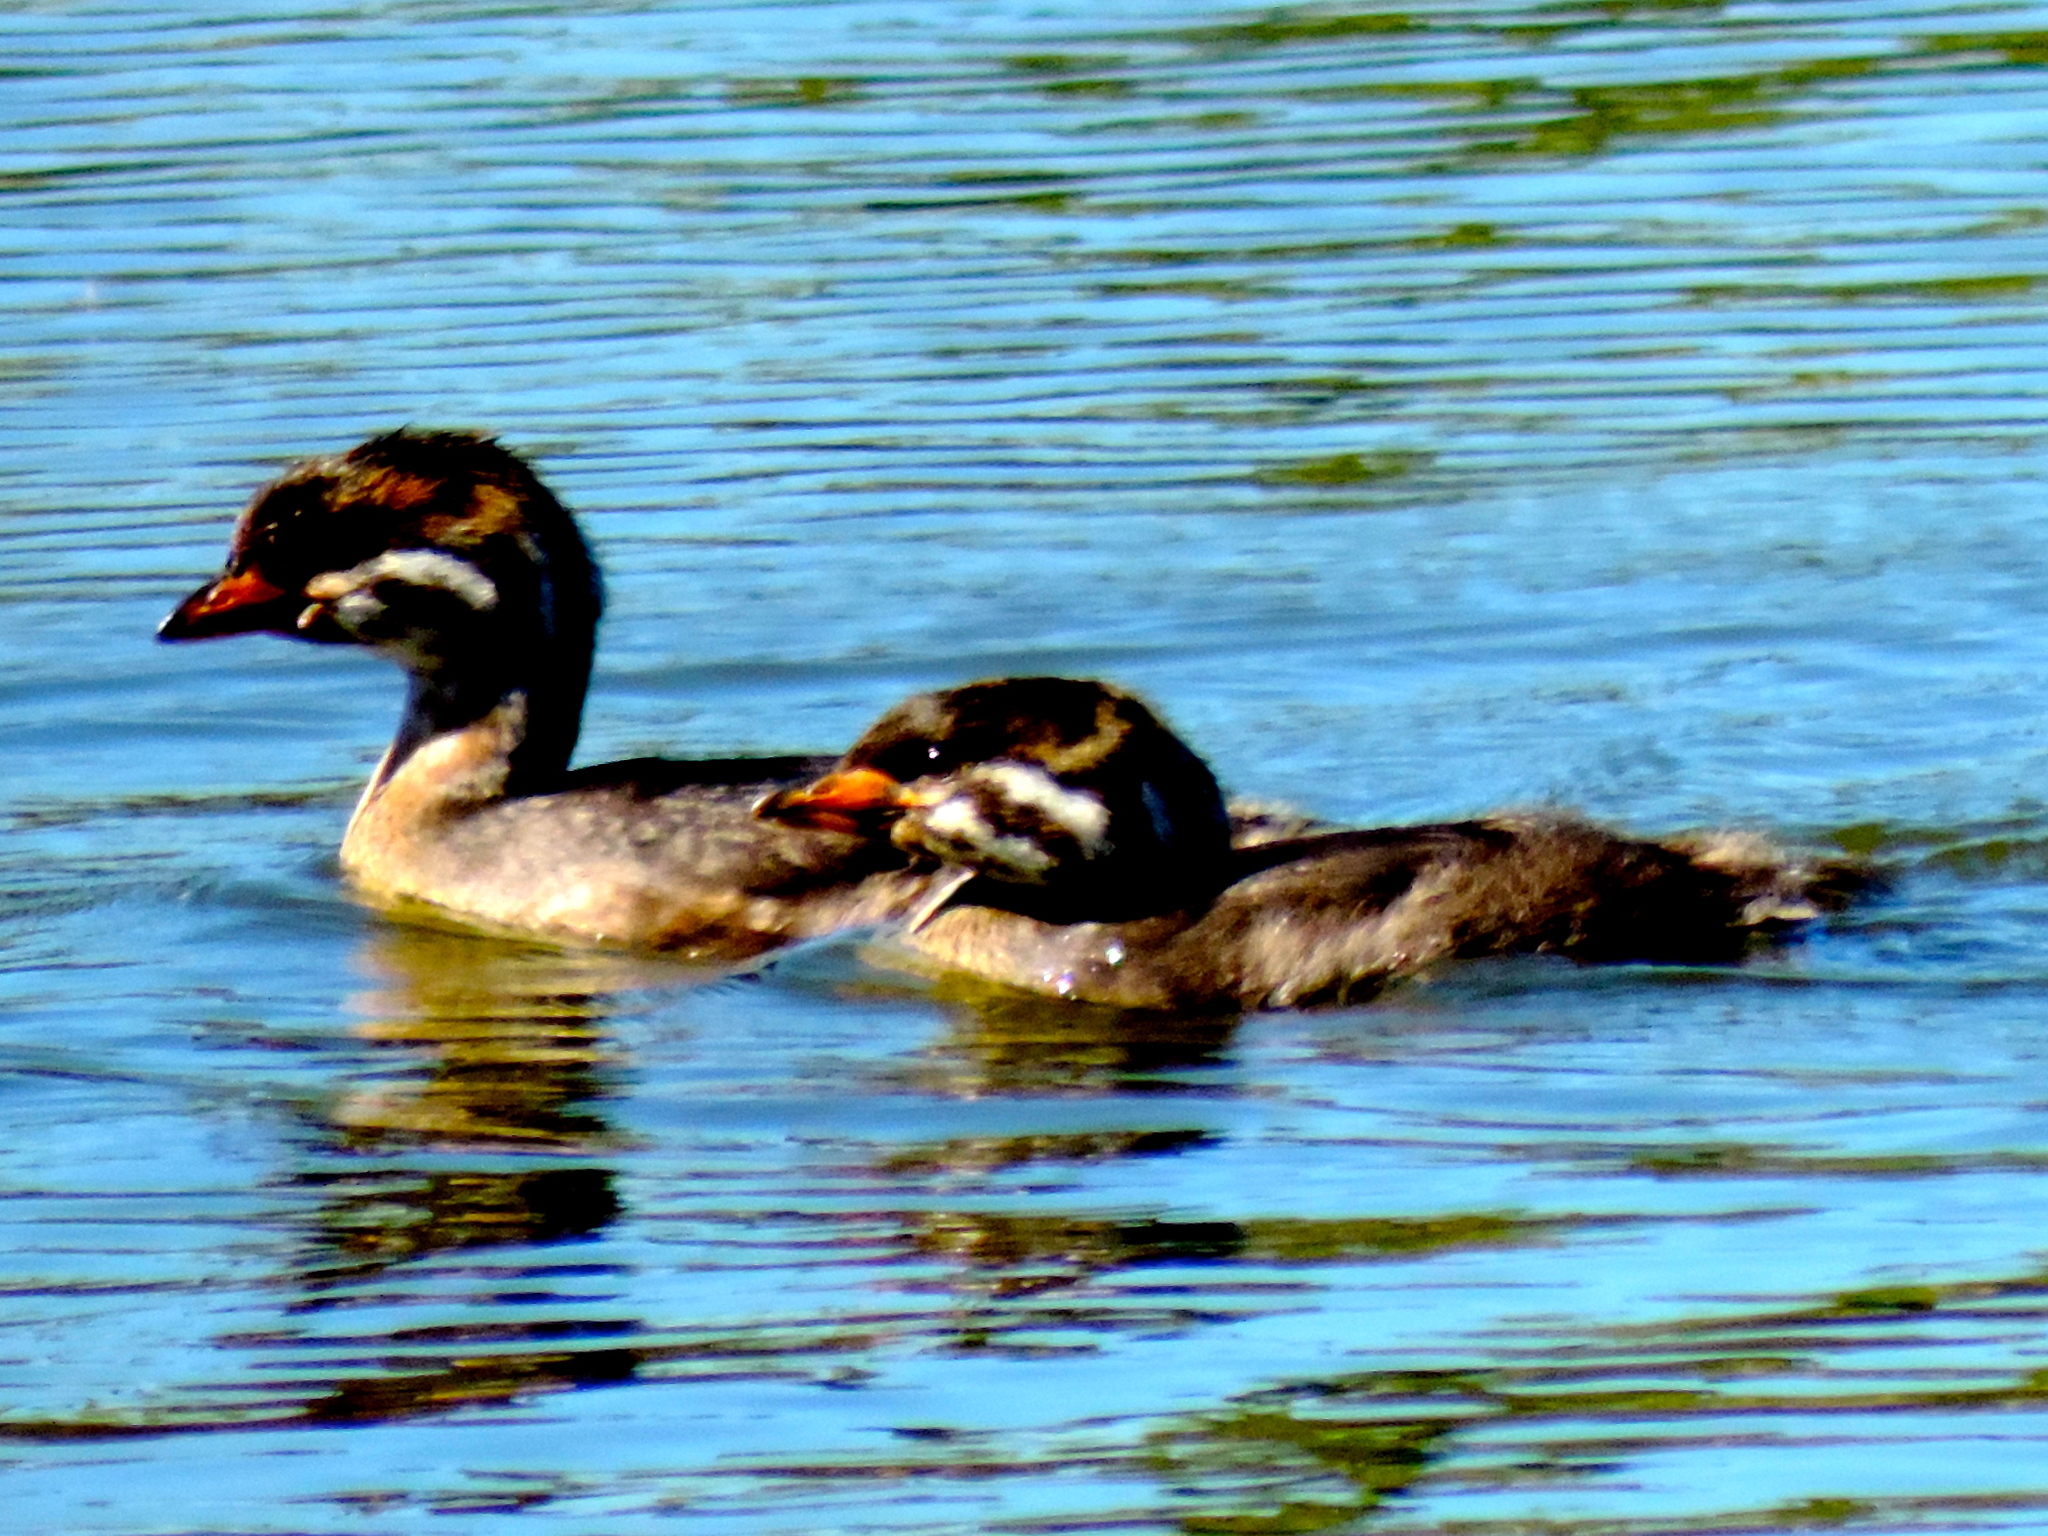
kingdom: Animalia
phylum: Chordata
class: Aves
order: Podicipediformes
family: Podicipedidae
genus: Podilymbus
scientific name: Podilymbus podiceps
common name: Pied-billed grebe
